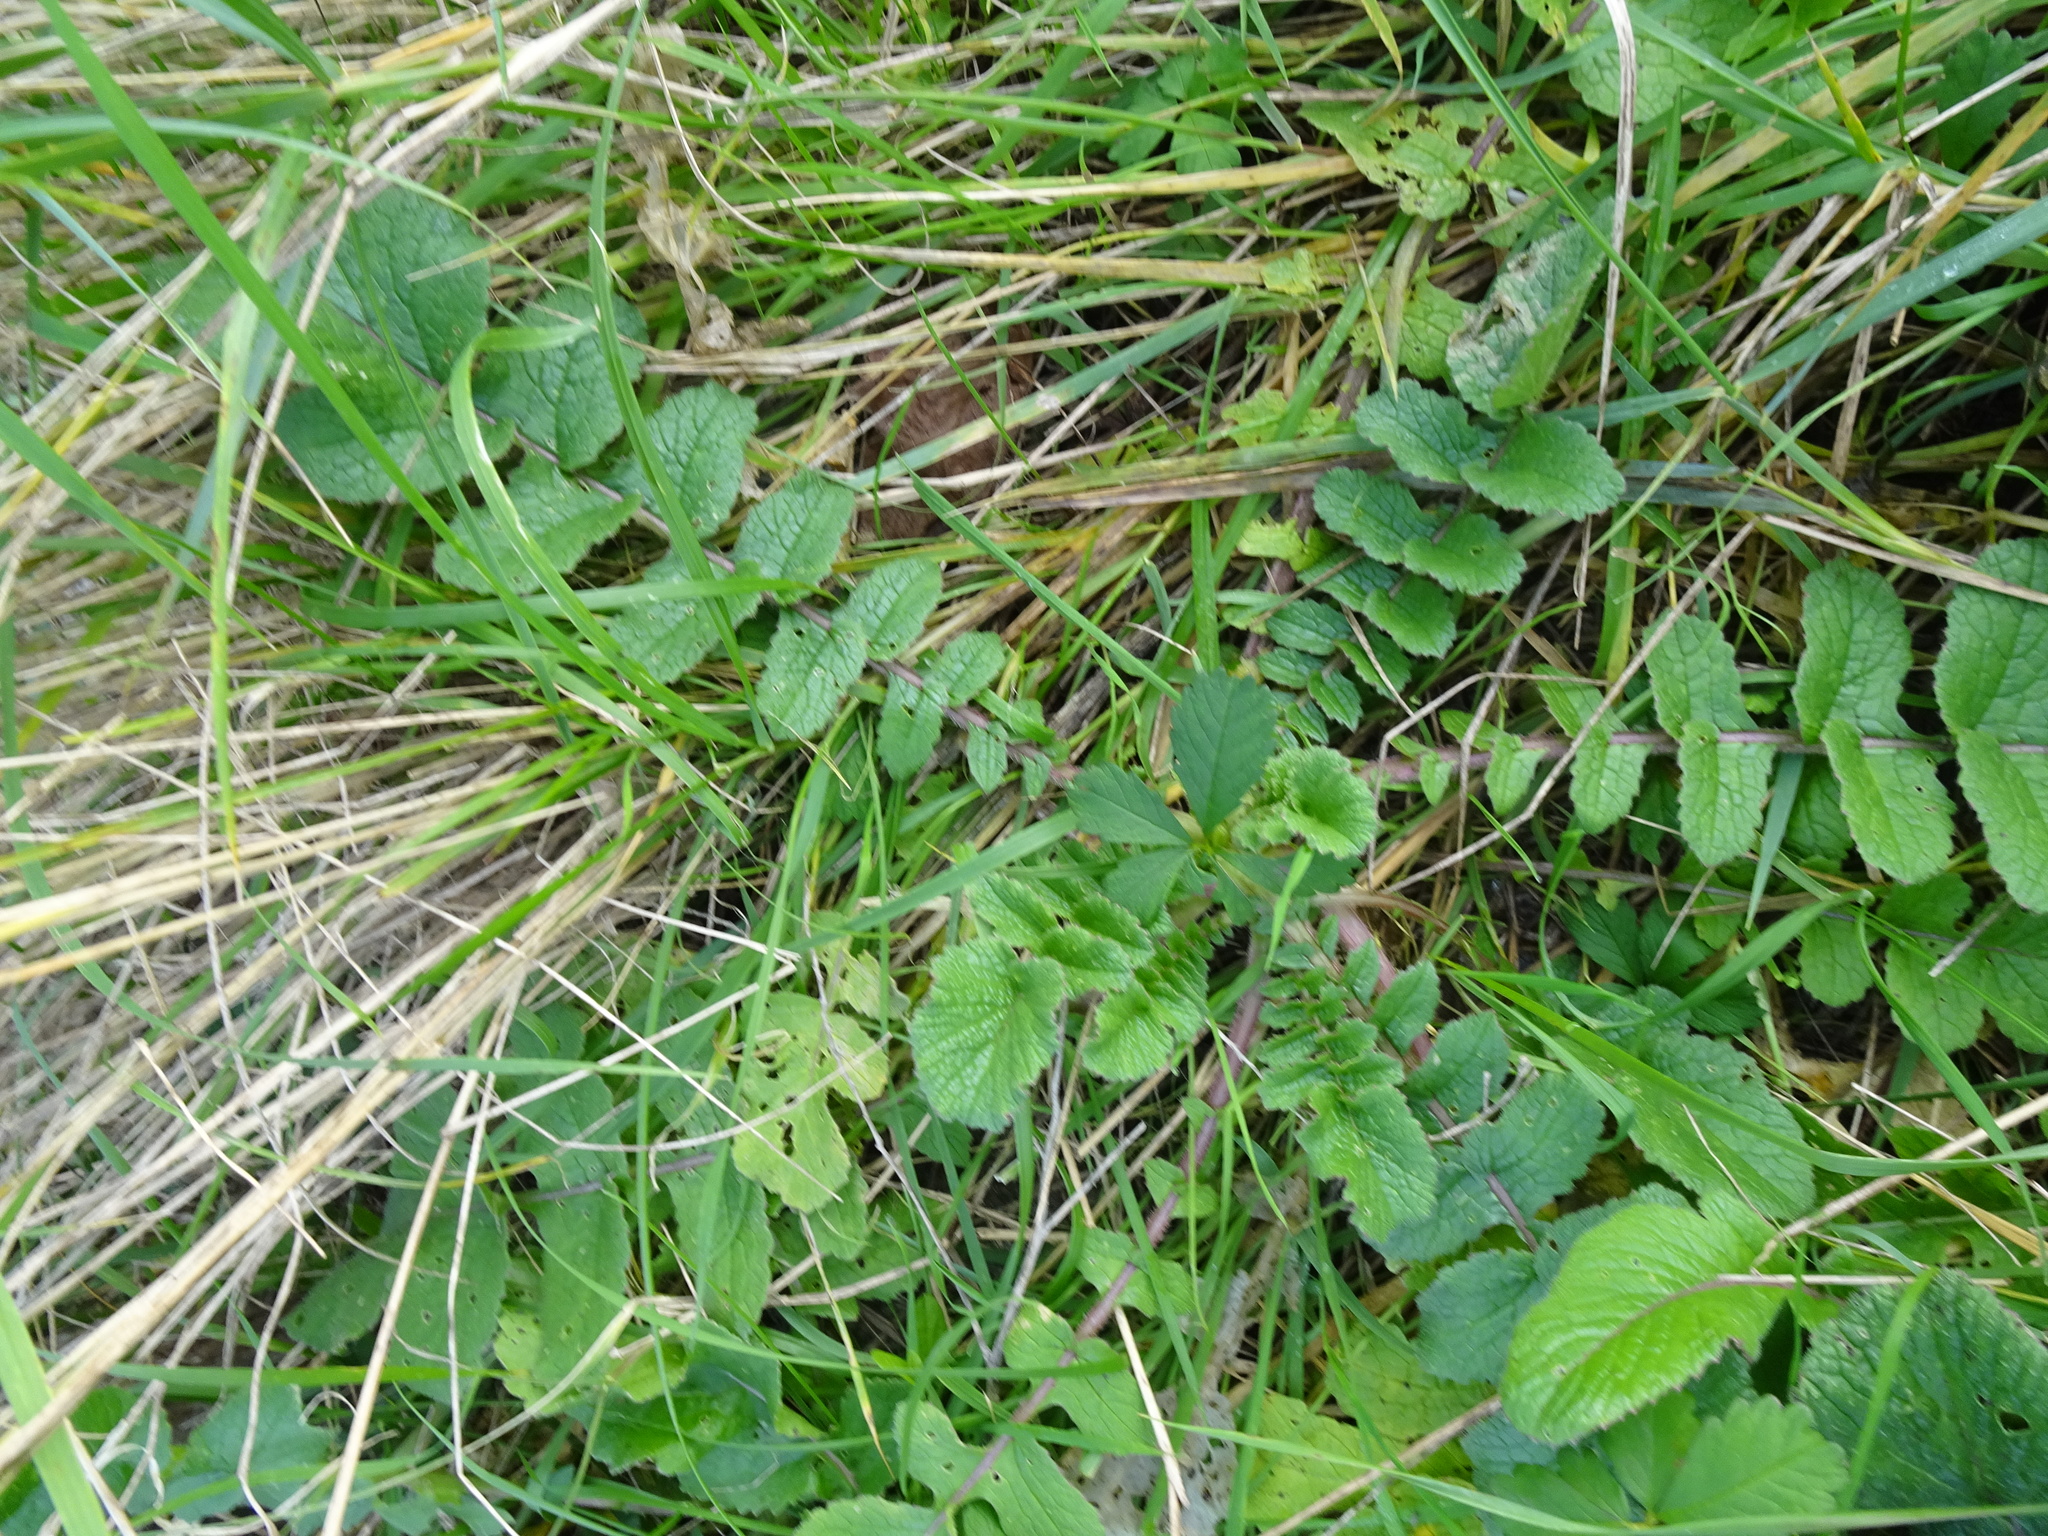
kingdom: Plantae
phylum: Tracheophyta
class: Magnoliopsida
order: Brassicales
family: Brassicaceae
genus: Raphanus
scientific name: Raphanus raphanistrum
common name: Wild radish
